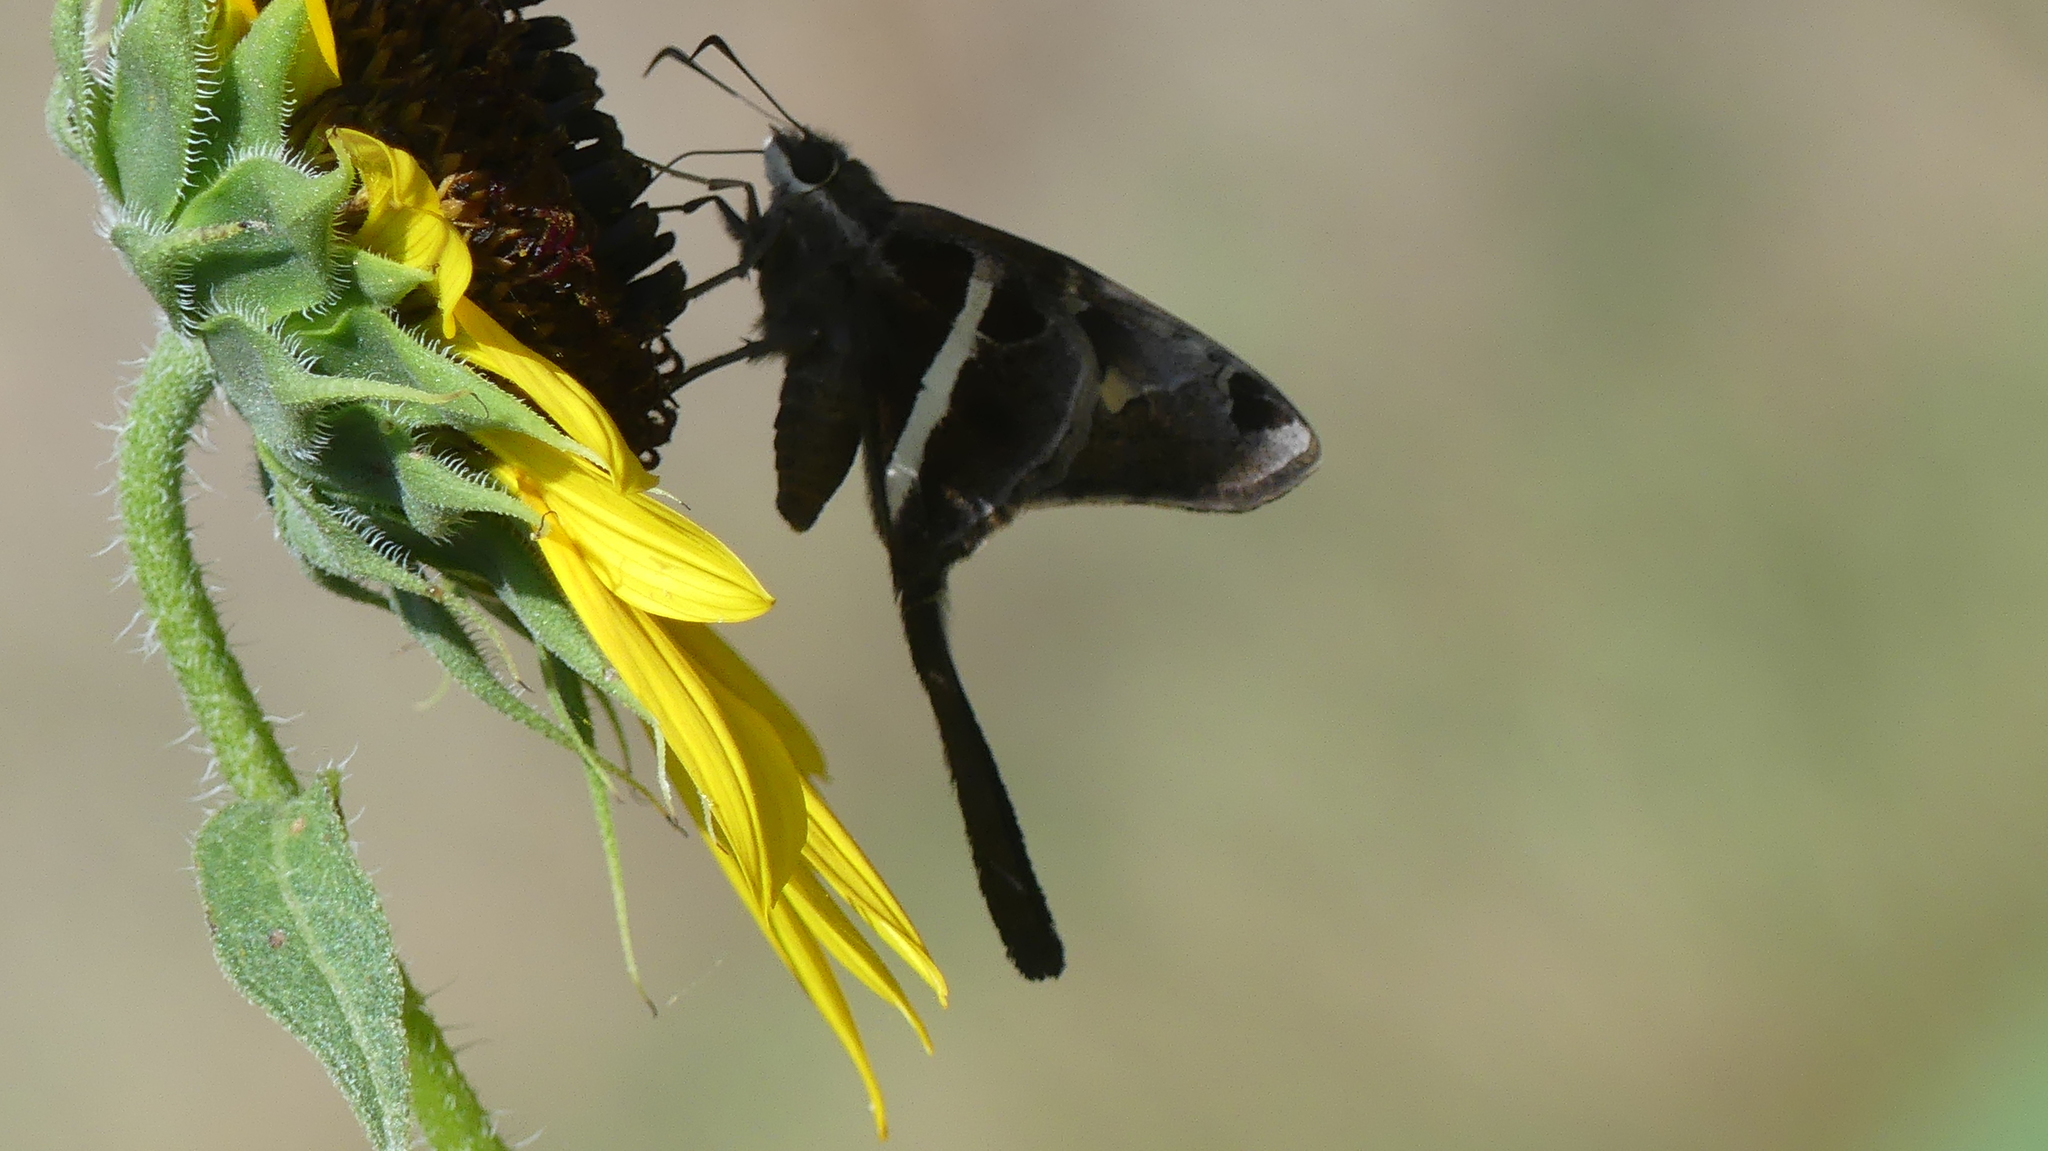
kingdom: Animalia
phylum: Arthropoda
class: Insecta
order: Lepidoptera
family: Hesperiidae
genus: Chioides
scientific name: Chioides catillus
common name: Silverbanded skipper
